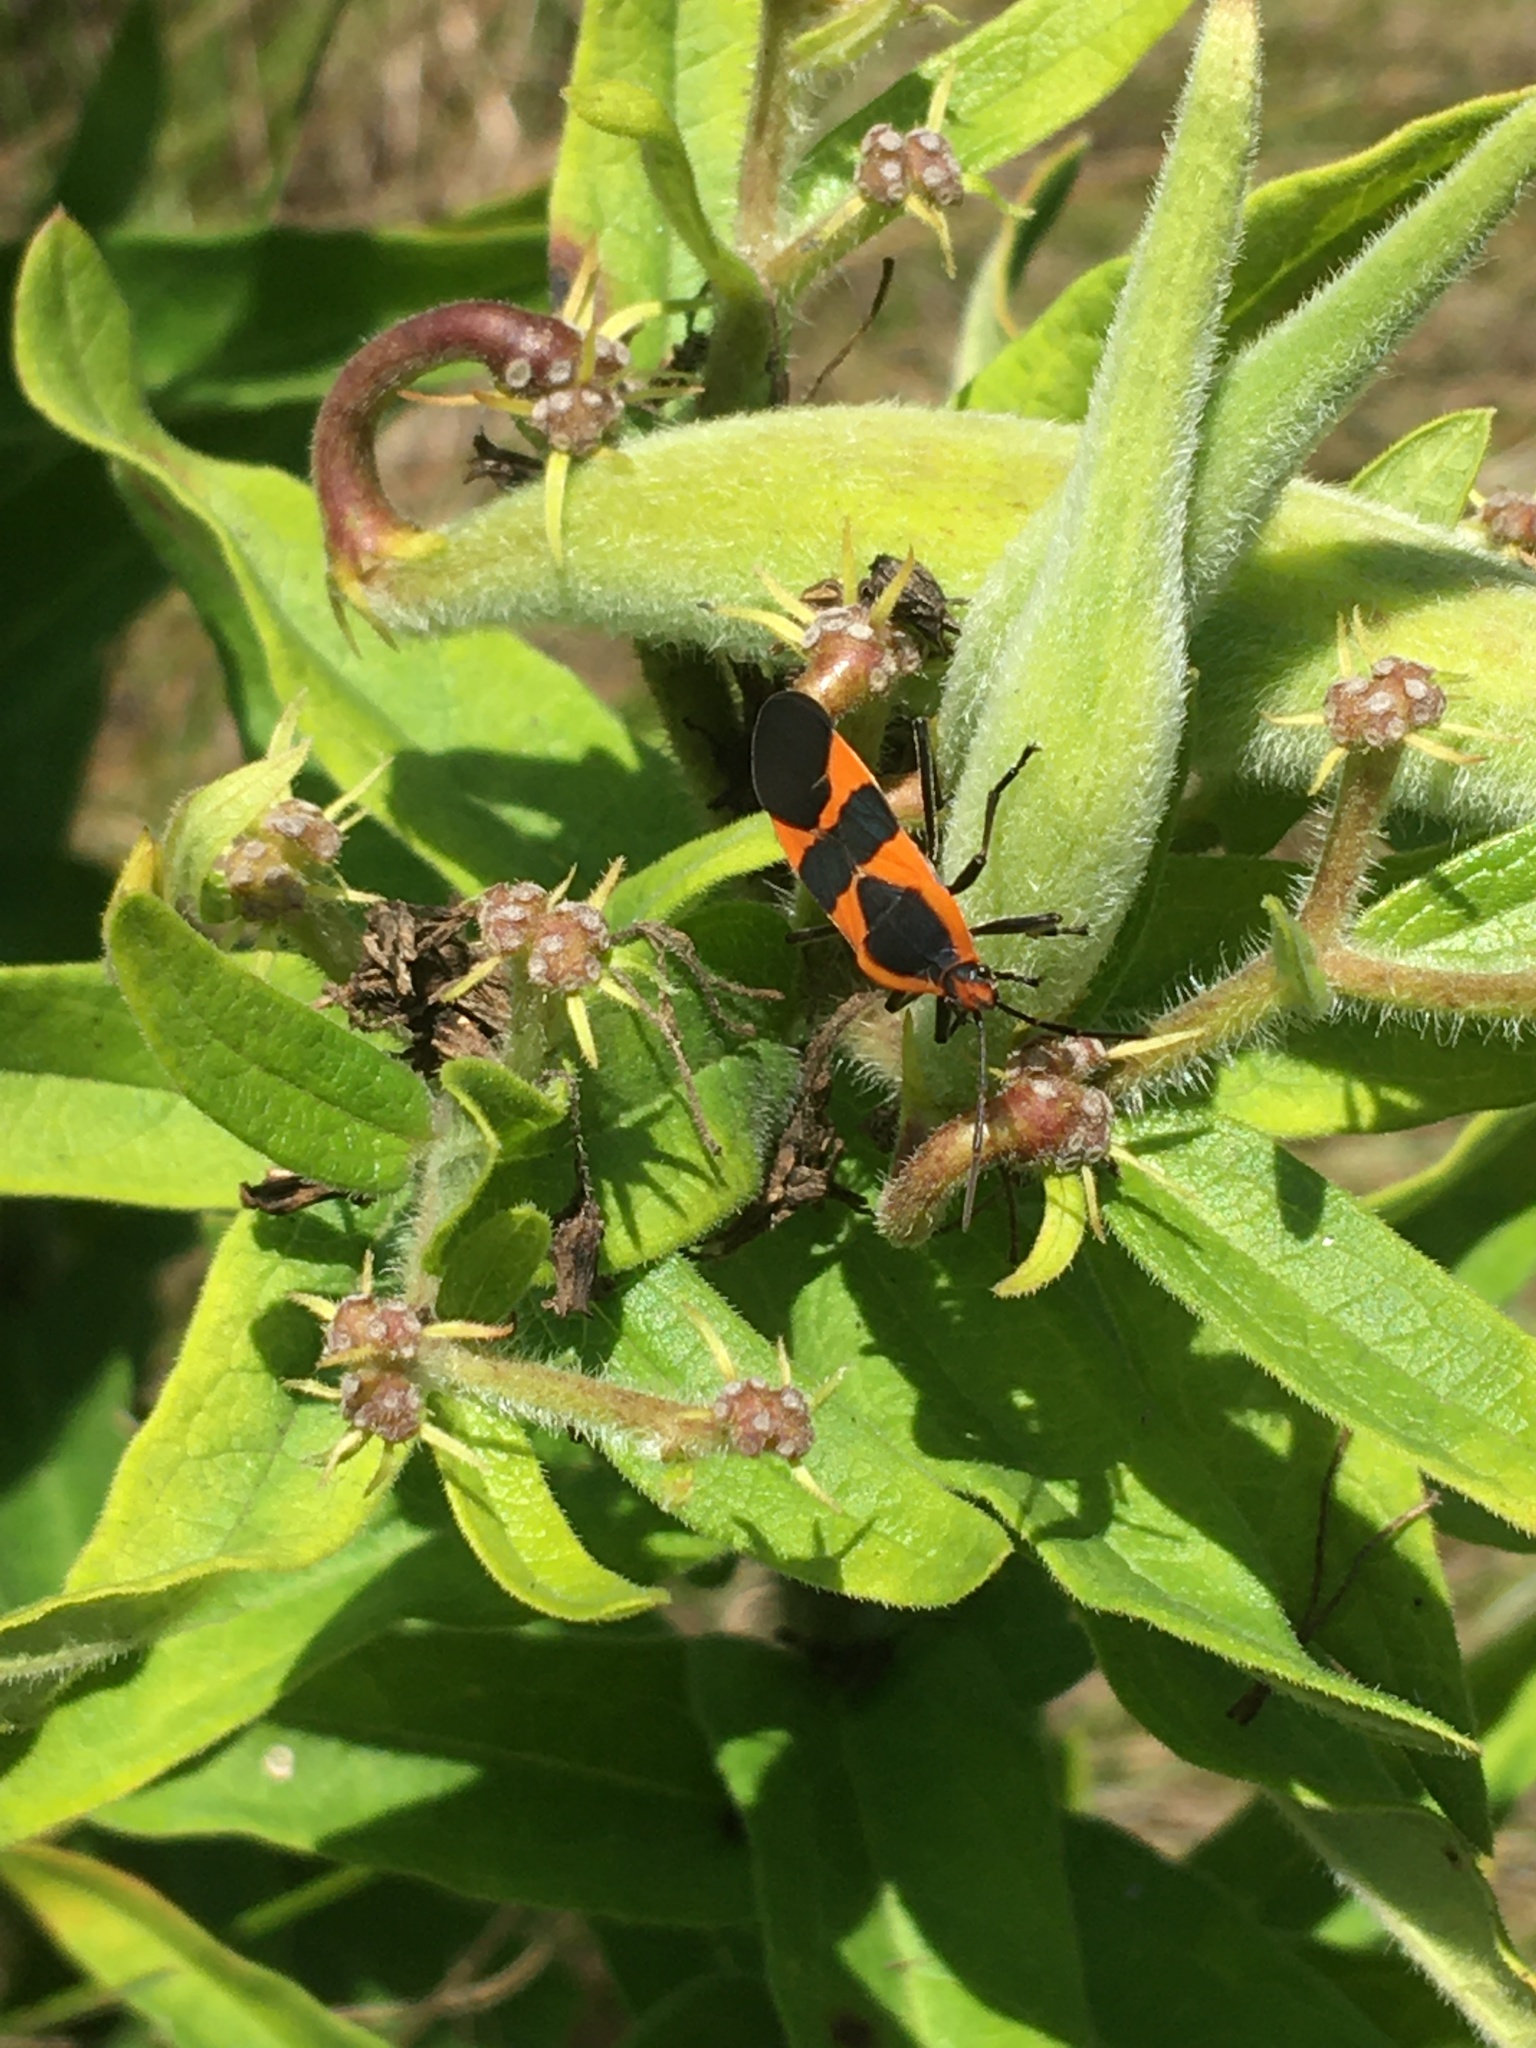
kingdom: Animalia
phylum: Arthropoda
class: Insecta
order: Hemiptera
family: Lygaeidae
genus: Oncopeltus
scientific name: Oncopeltus fasciatus
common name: Large milkweed bug
